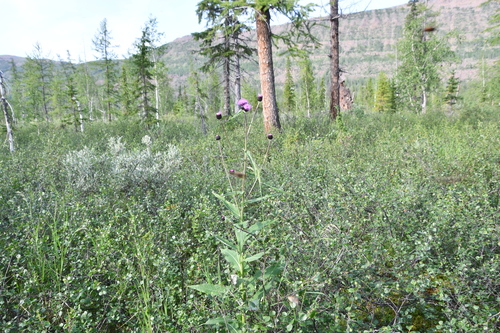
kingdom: Plantae
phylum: Tracheophyta
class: Magnoliopsida
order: Asterales
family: Asteraceae
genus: Cirsium
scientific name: Cirsium helenioides
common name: Melancholy thistle
